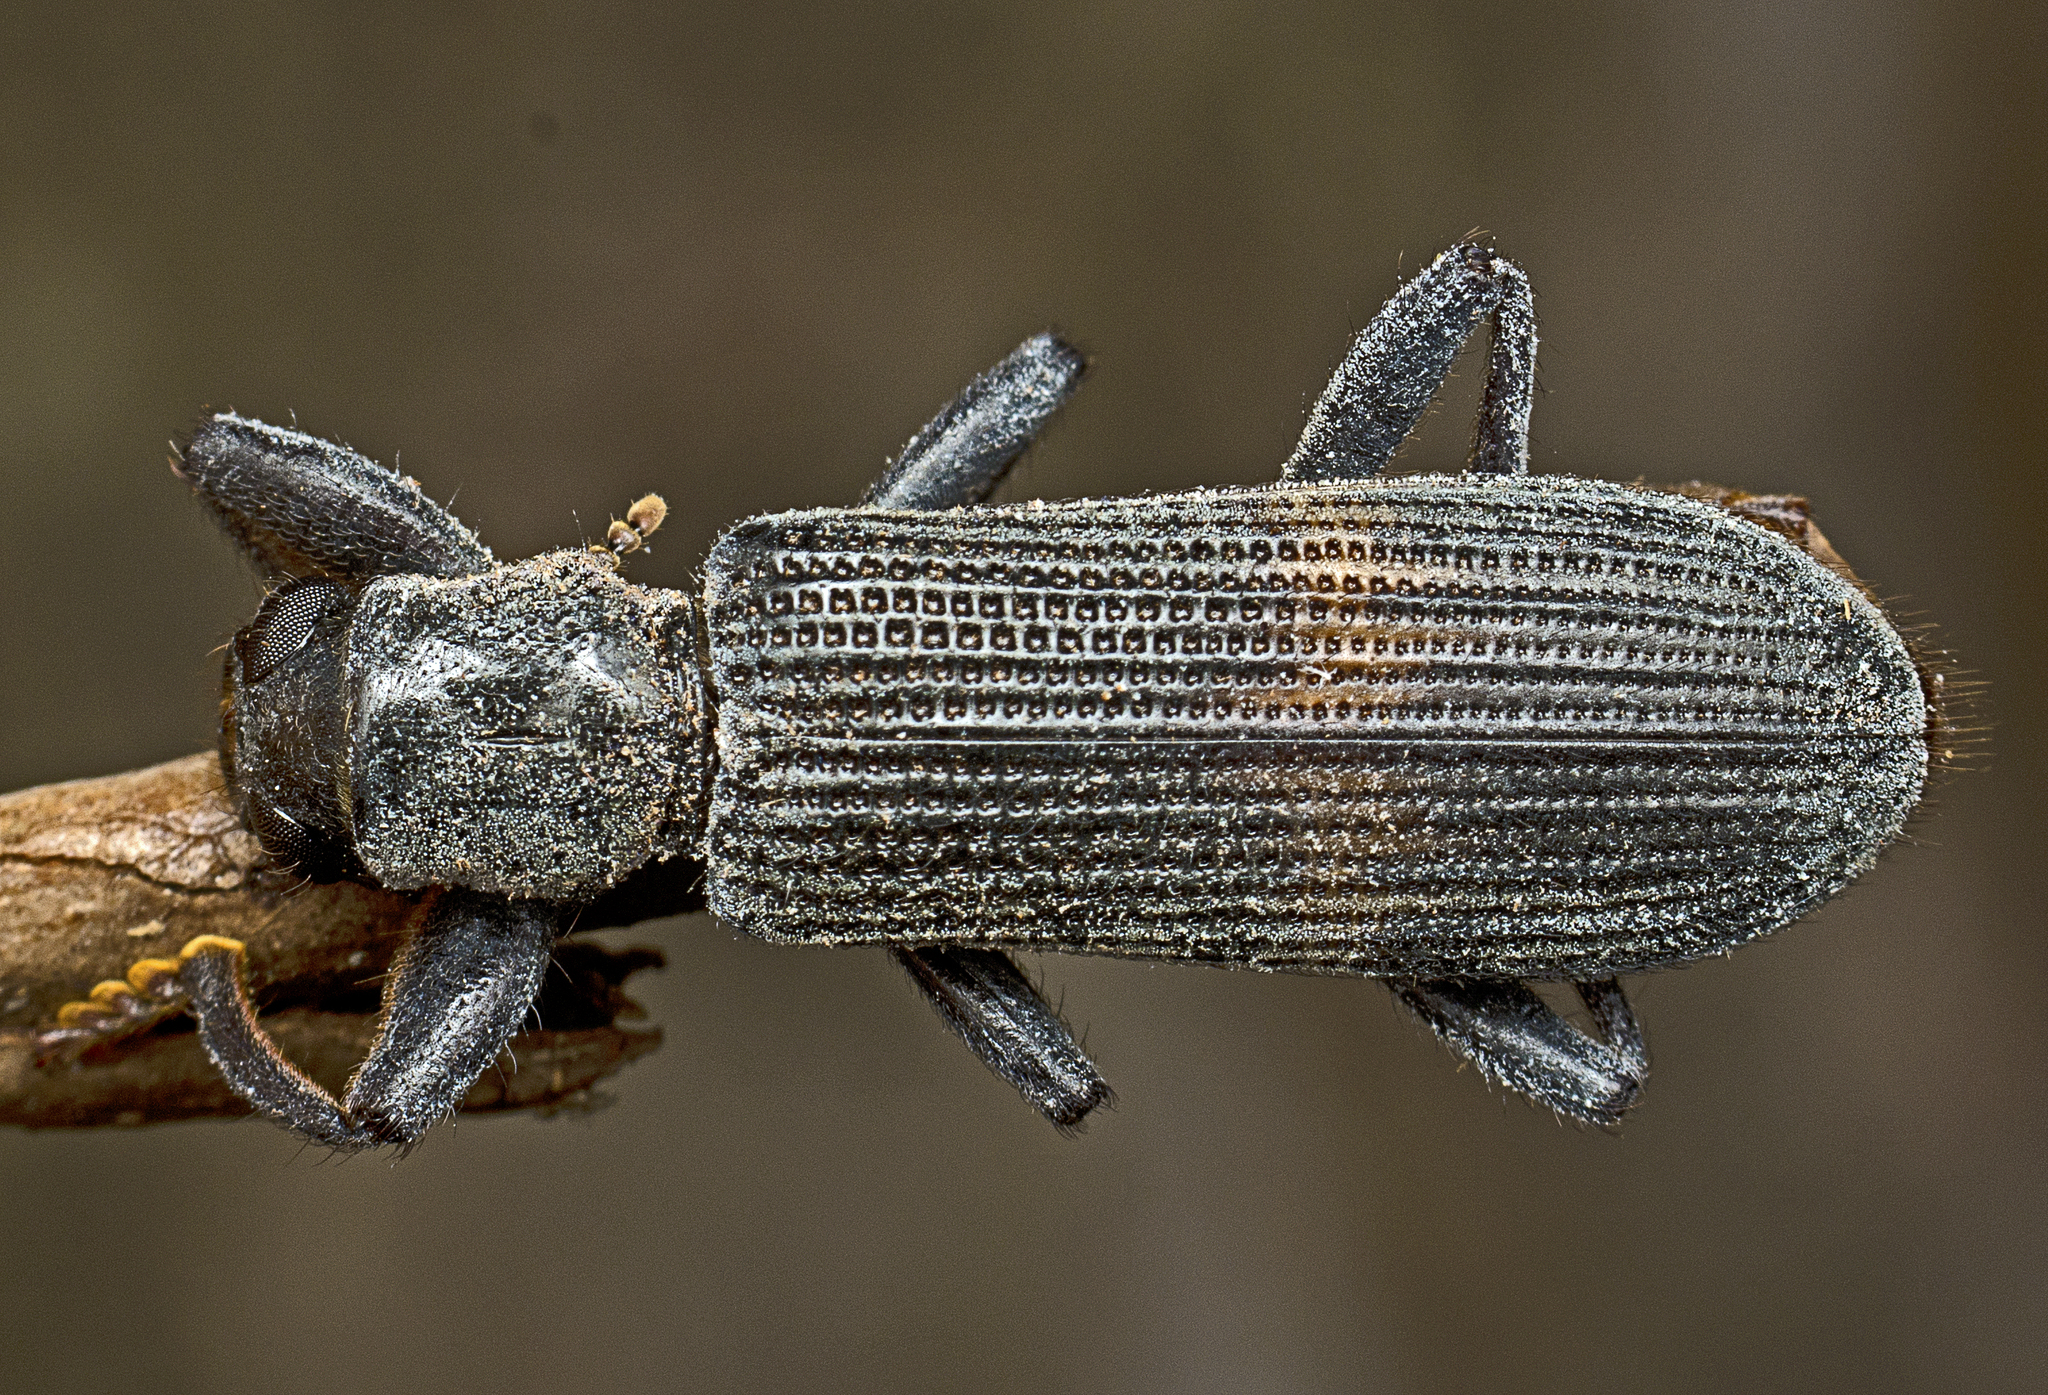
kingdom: Animalia
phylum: Arthropoda
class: Insecta
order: Coleoptera
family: Cleridae
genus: Eunatalis
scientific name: Eunatalis fasciata
